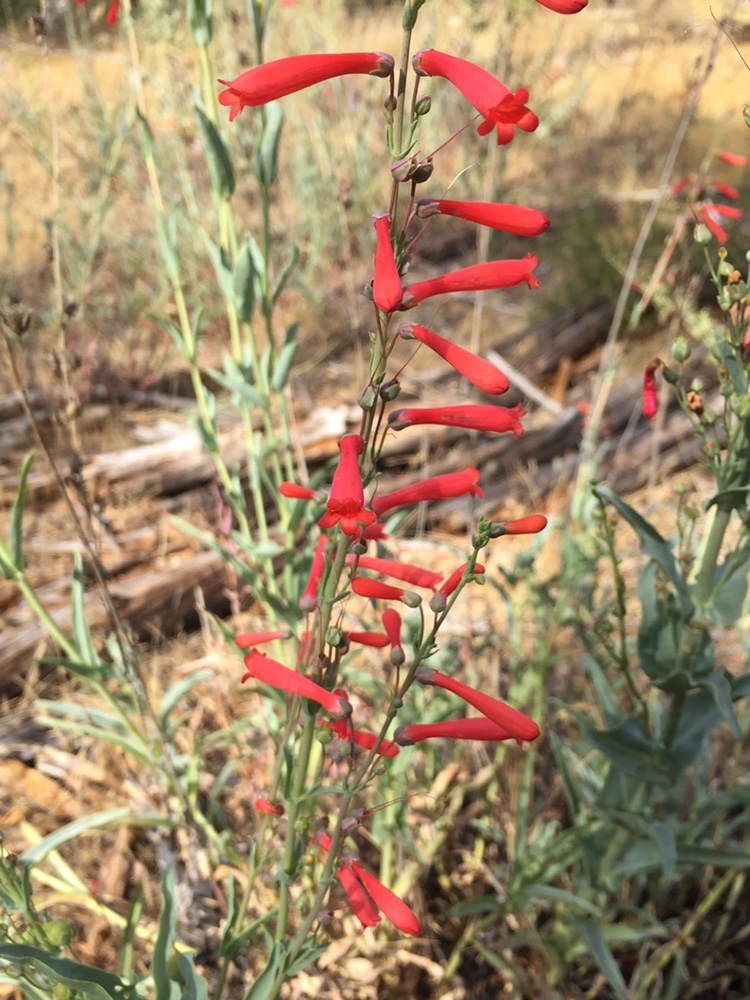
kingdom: Plantae
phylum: Tracheophyta
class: Magnoliopsida
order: Lamiales
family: Plantaginaceae
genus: Penstemon
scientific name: Penstemon centranthifolius
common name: Scarlet bugler
